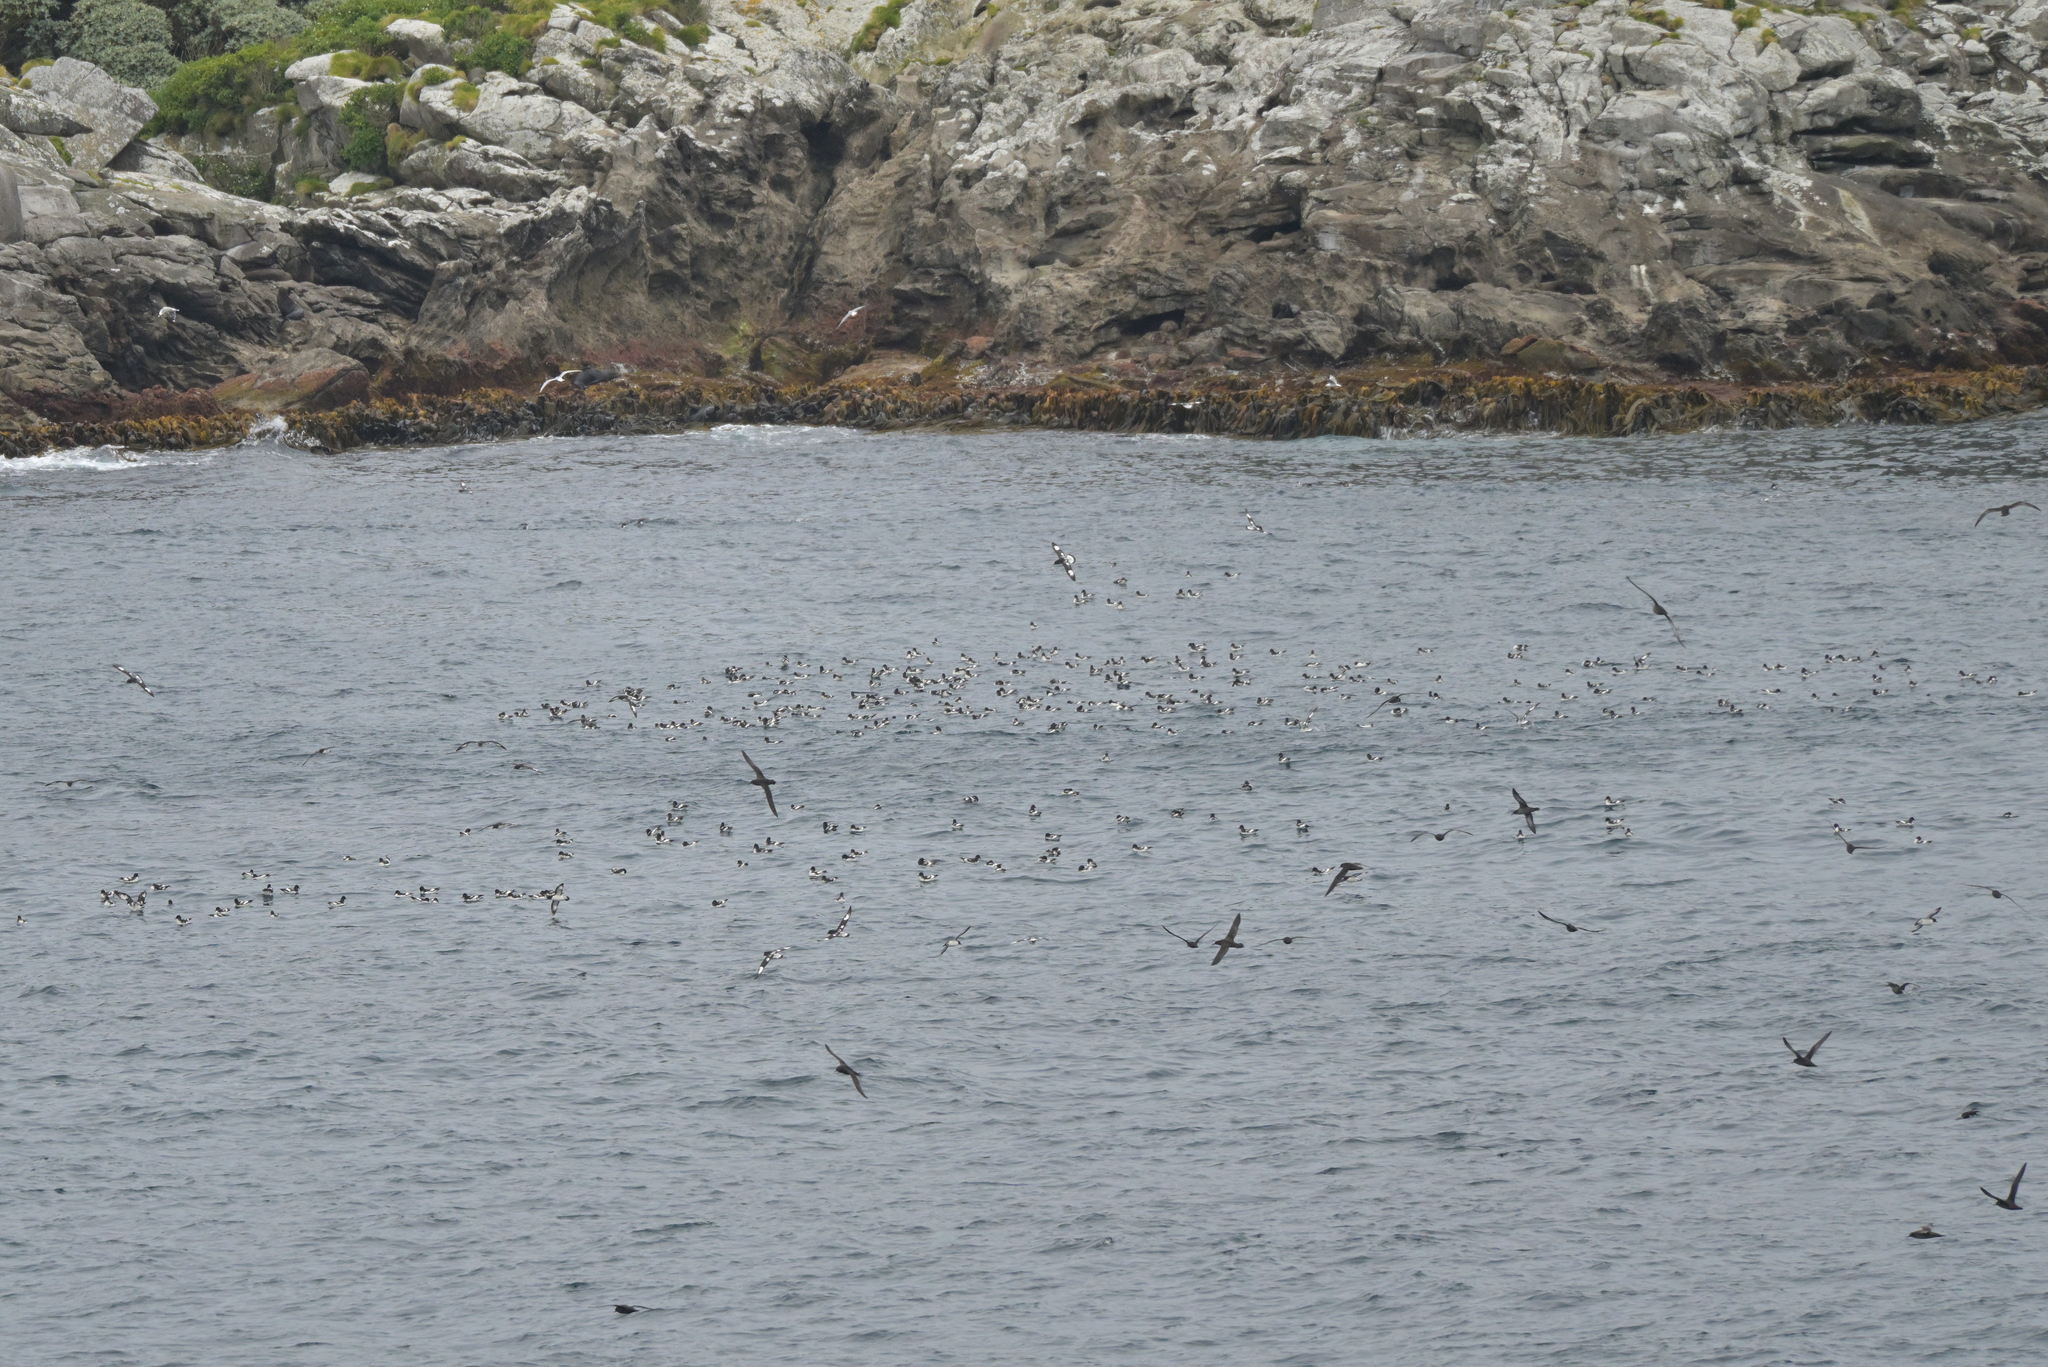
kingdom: Animalia
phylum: Chordata
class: Aves
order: Procellariiformes
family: Procellariidae
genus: Daption
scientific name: Daption capense
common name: Cape petrel
